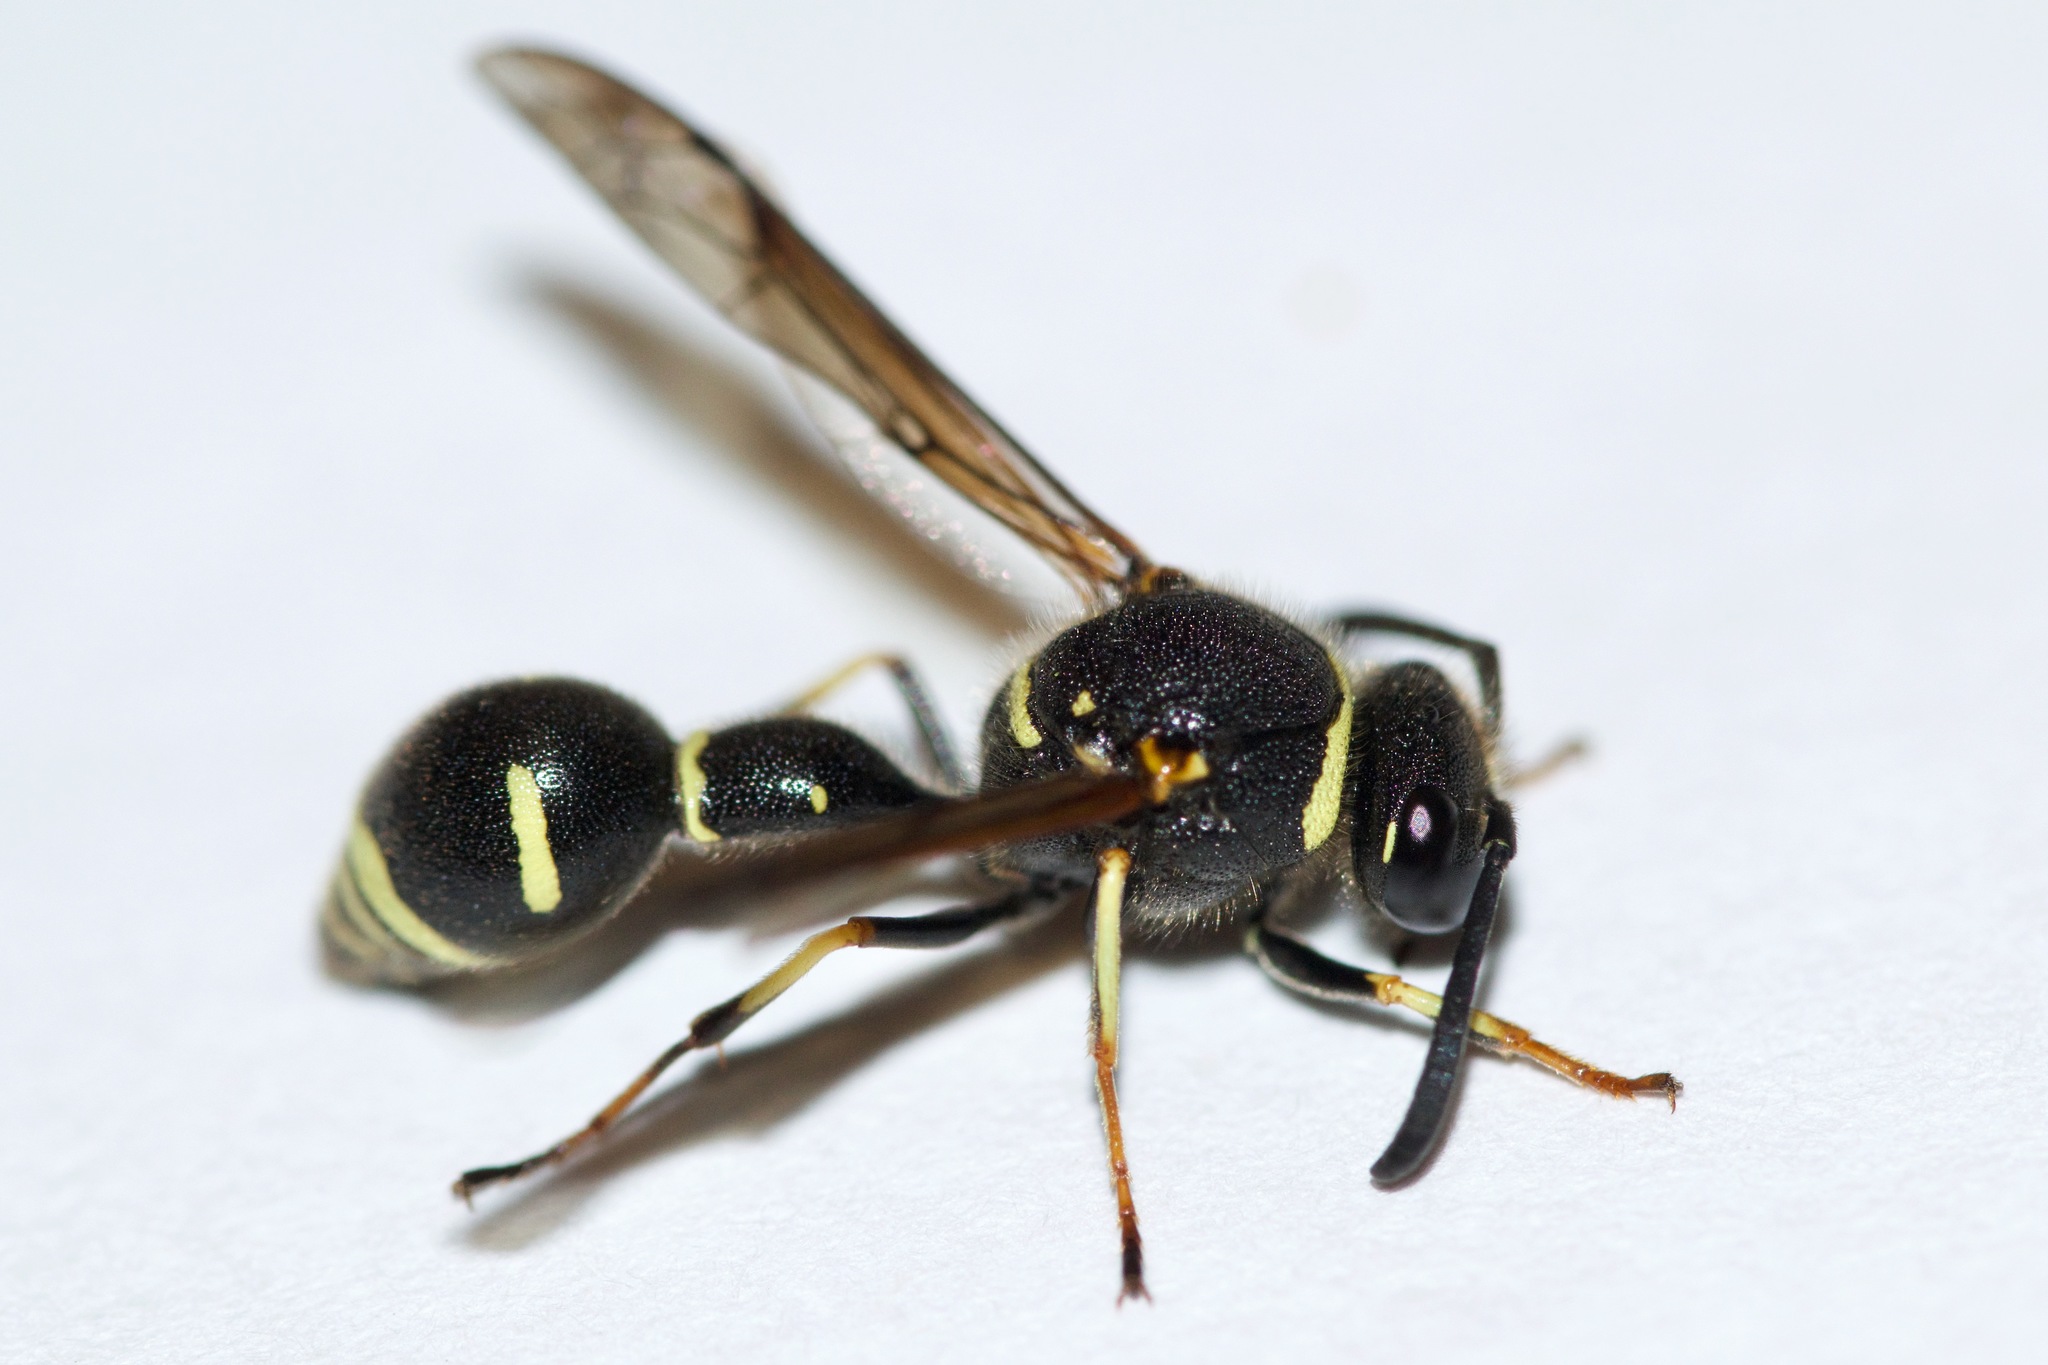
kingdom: Animalia
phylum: Arthropoda
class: Insecta
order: Hymenoptera
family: Vespidae
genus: Eumenes
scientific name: Eumenes
